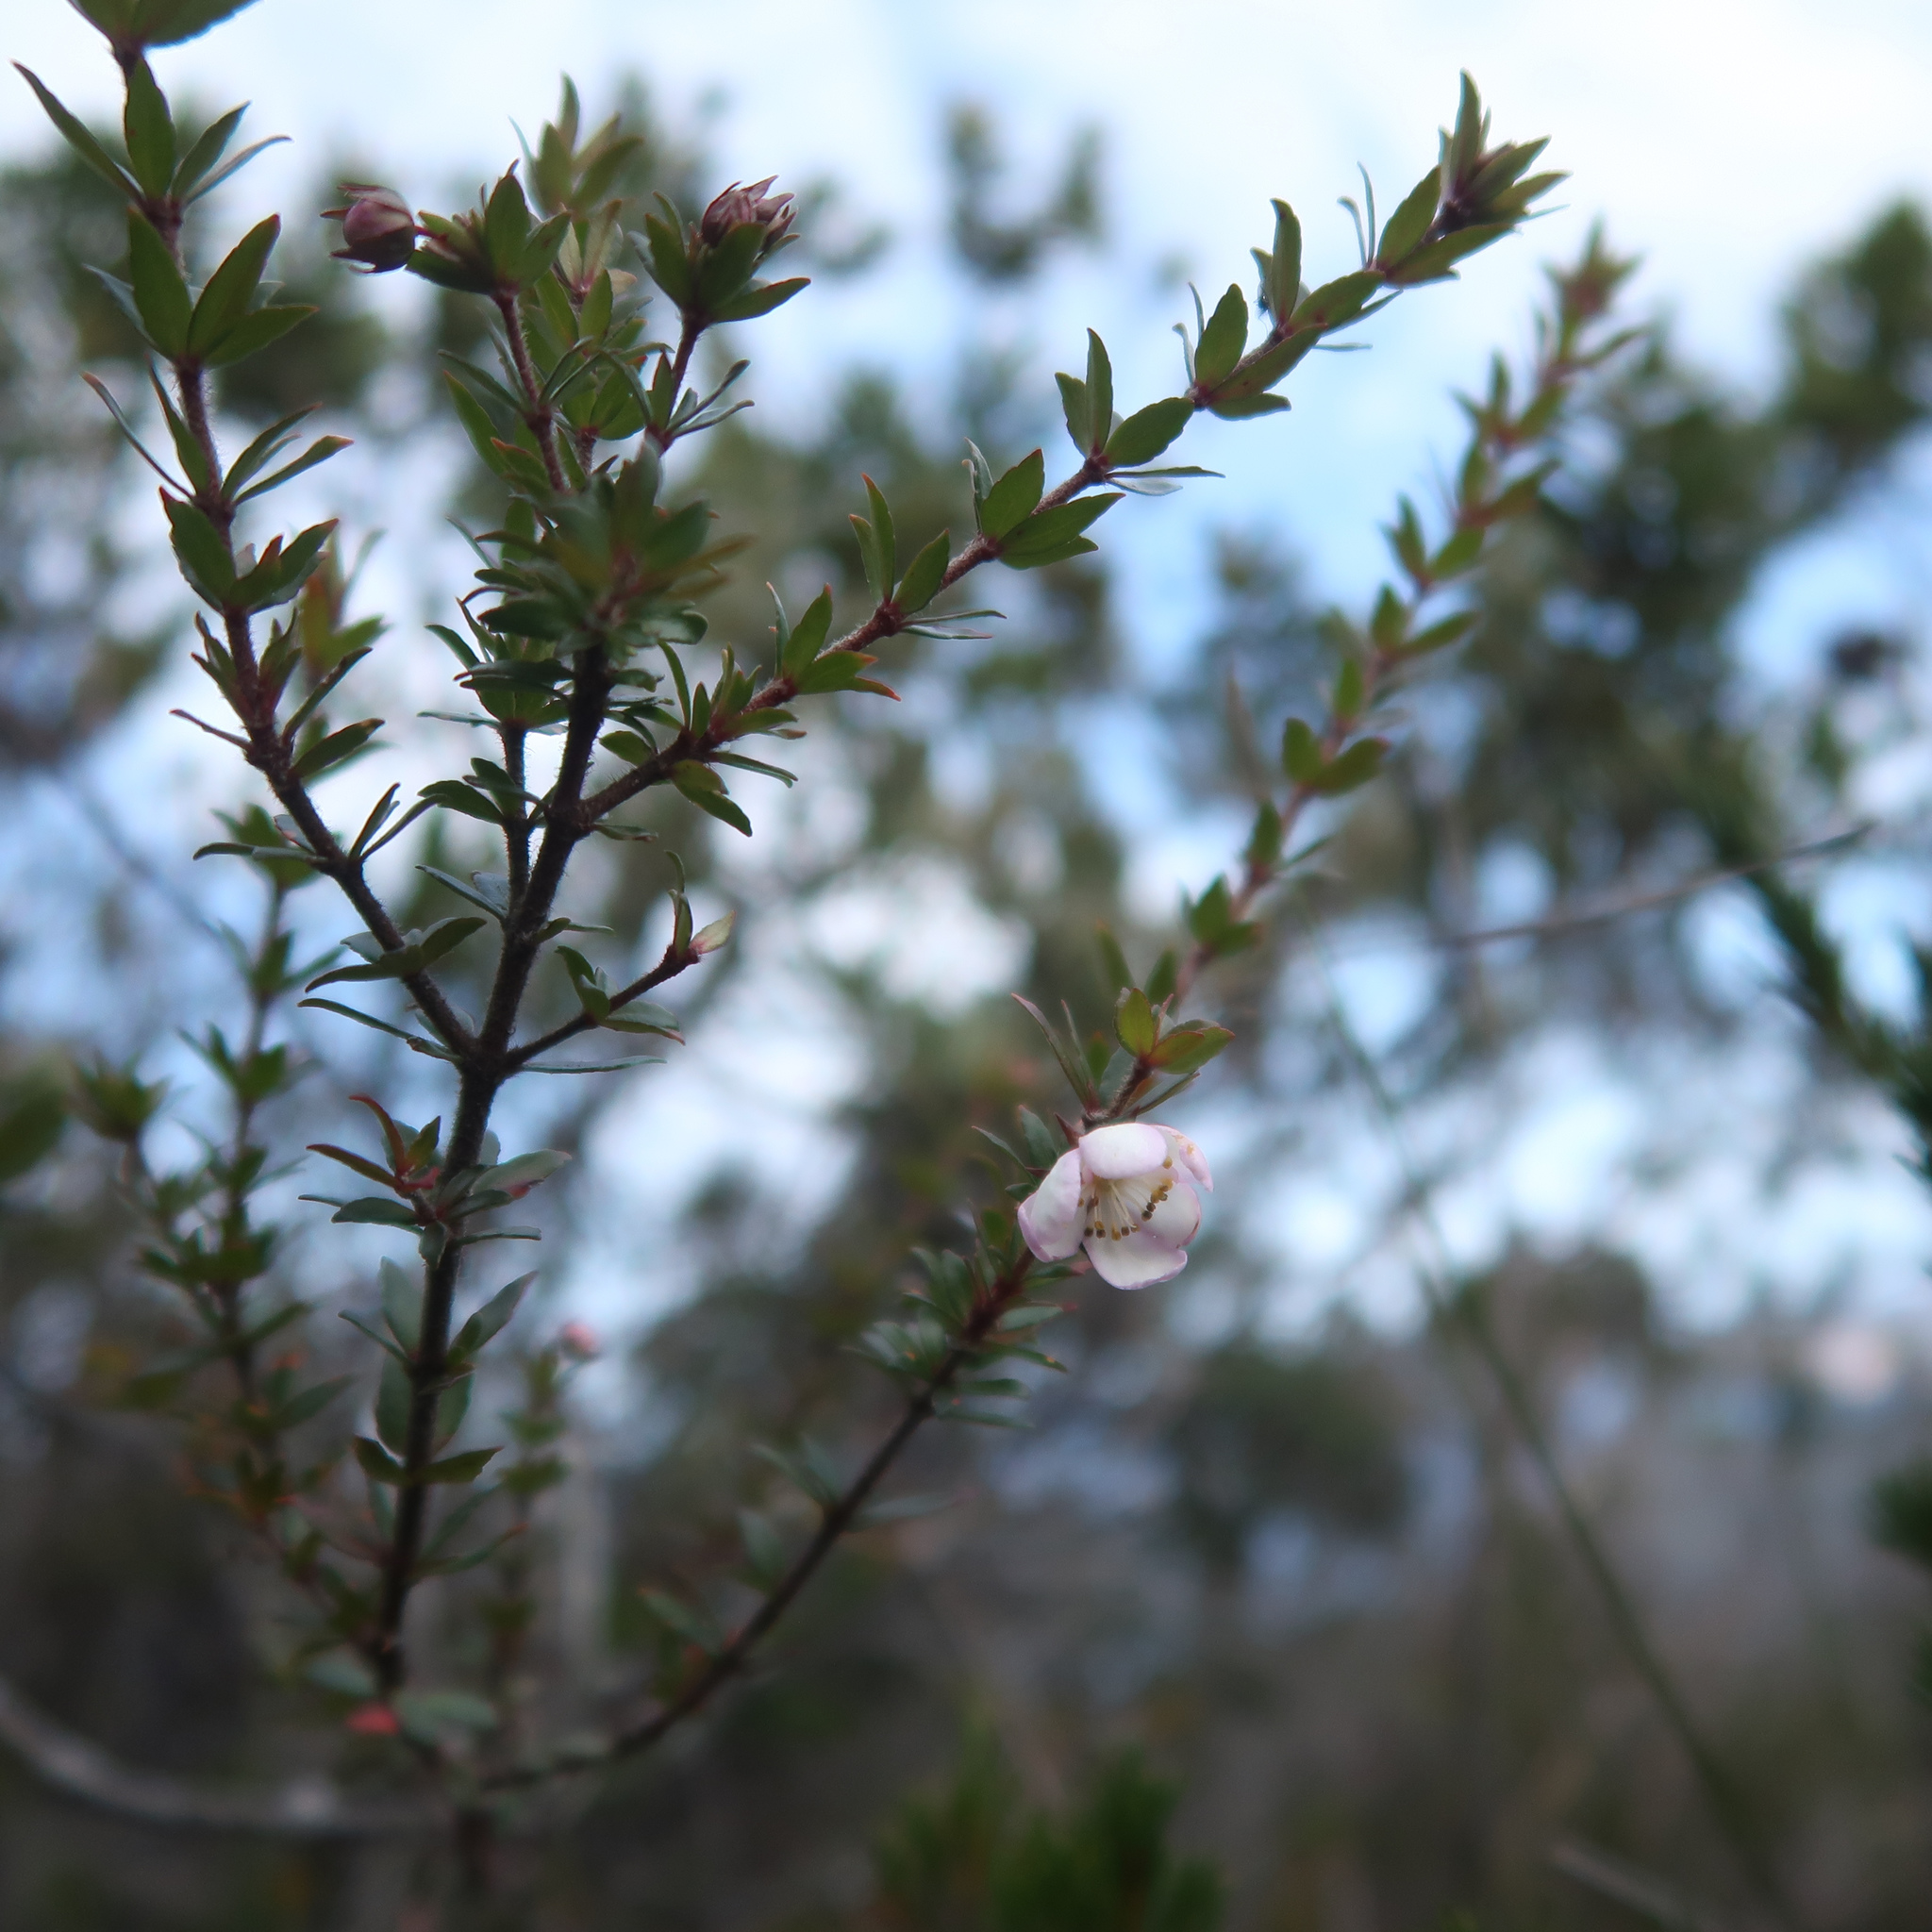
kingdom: Plantae
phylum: Tracheophyta
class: Magnoliopsida
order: Oxalidales
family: Cunoniaceae
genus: Bauera
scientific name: Bauera rubioides
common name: River-rose
